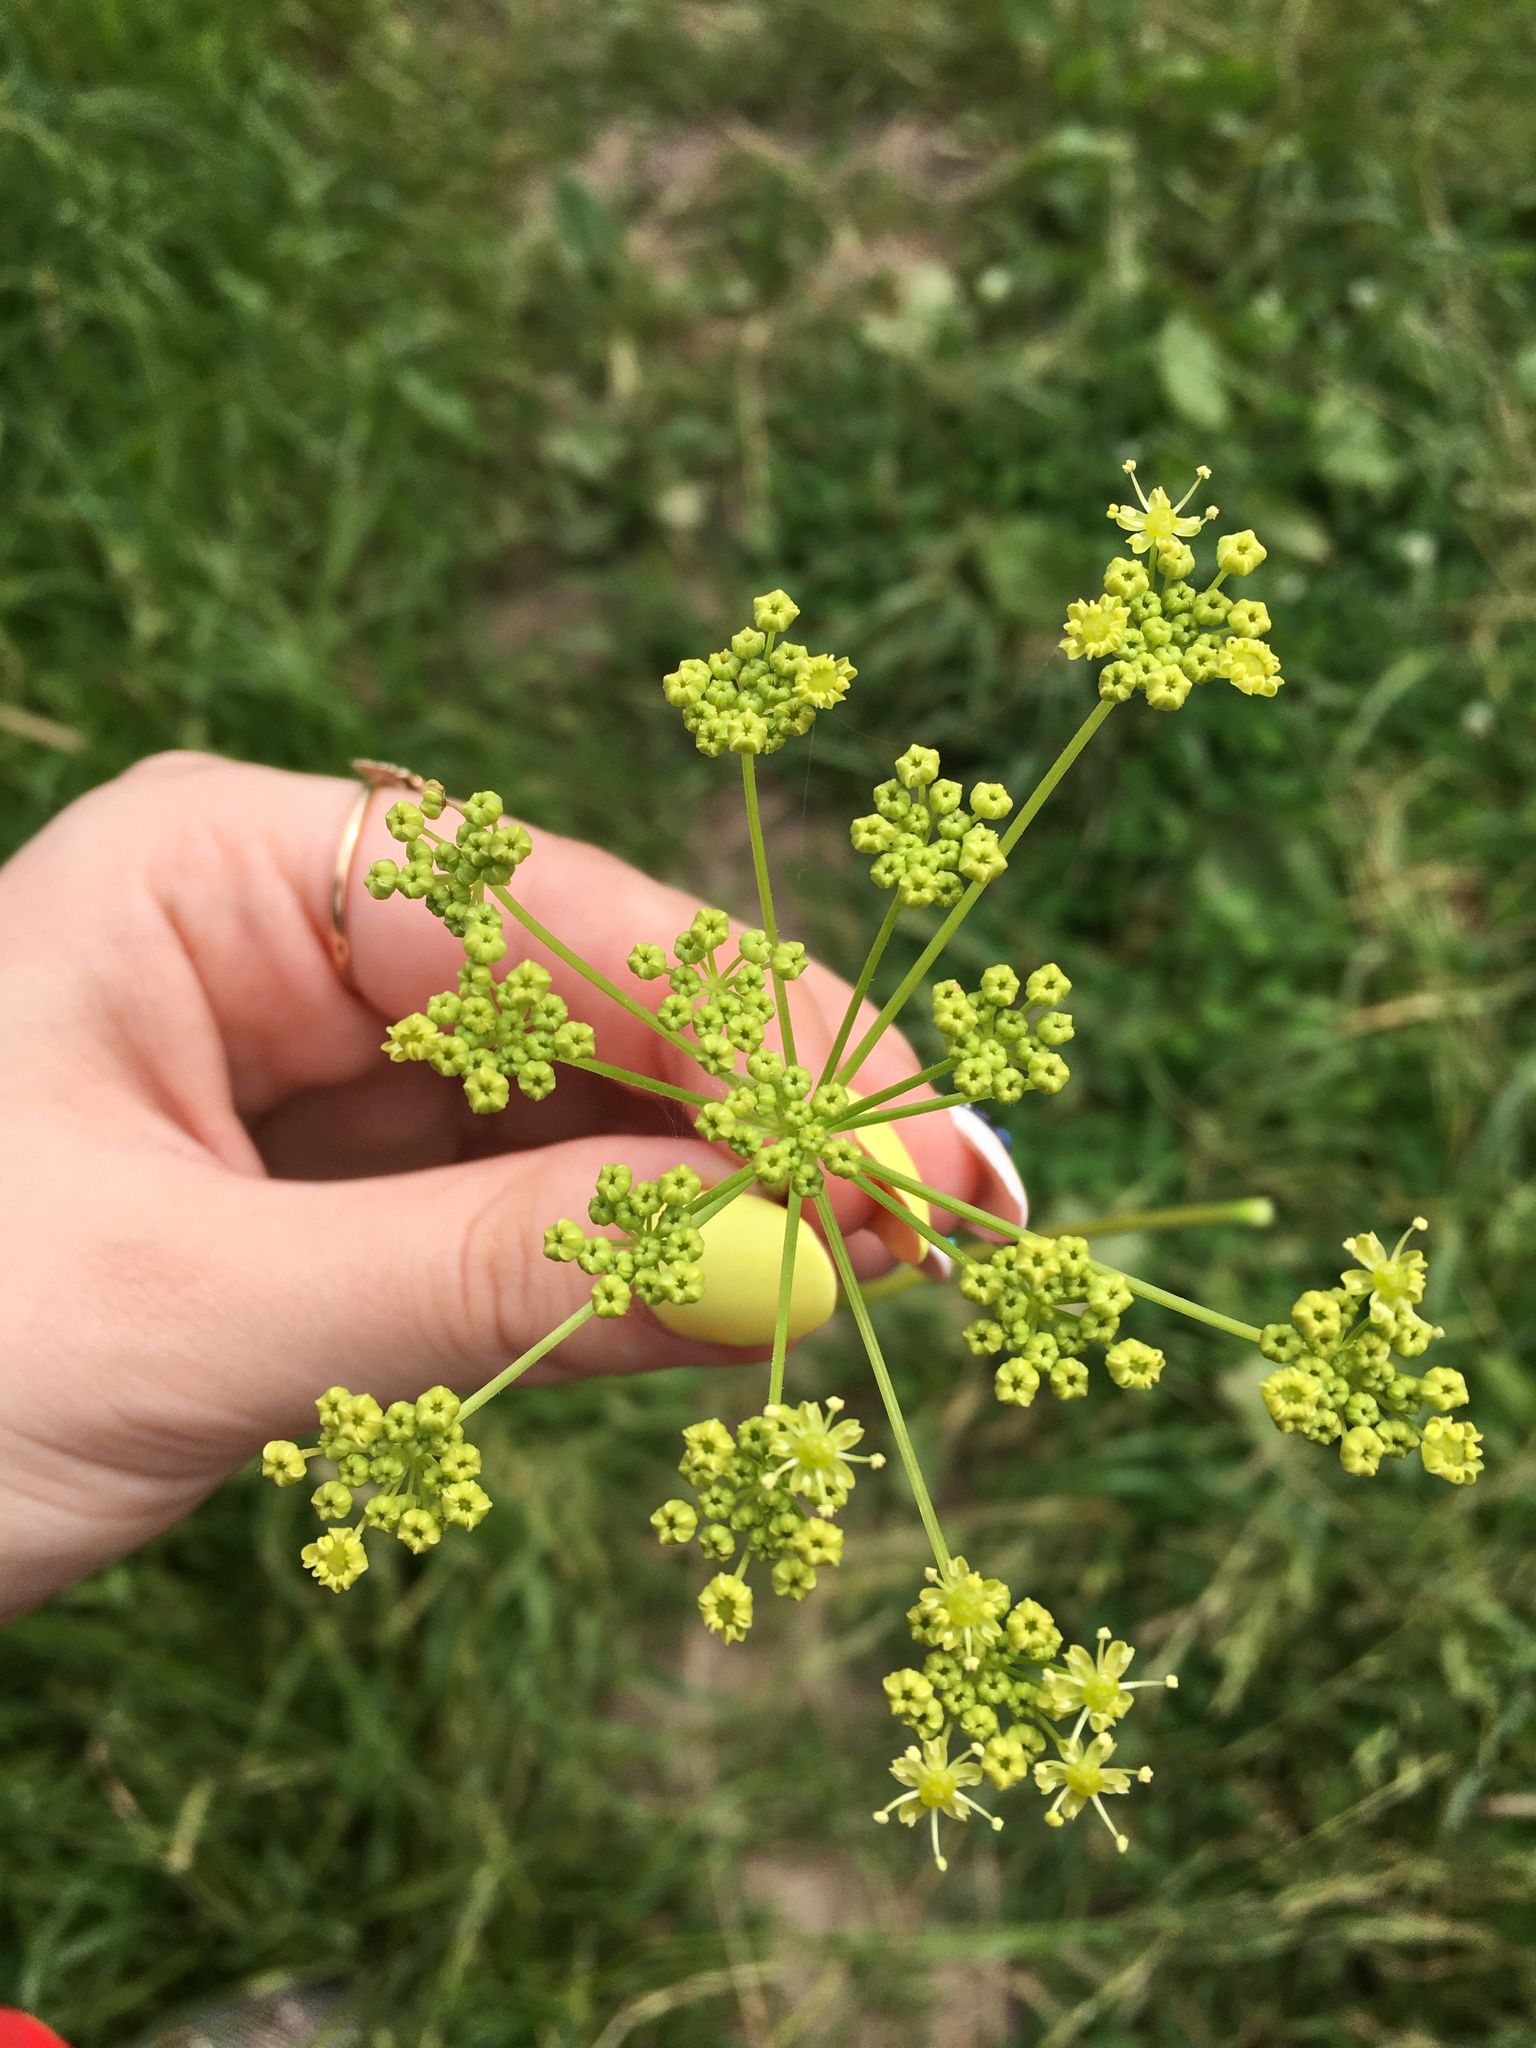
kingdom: Plantae
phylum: Tracheophyta
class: Magnoliopsida
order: Apiales
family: Apiaceae
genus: Pastinaca
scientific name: Pastinaca sativa
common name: Wild parsnip
